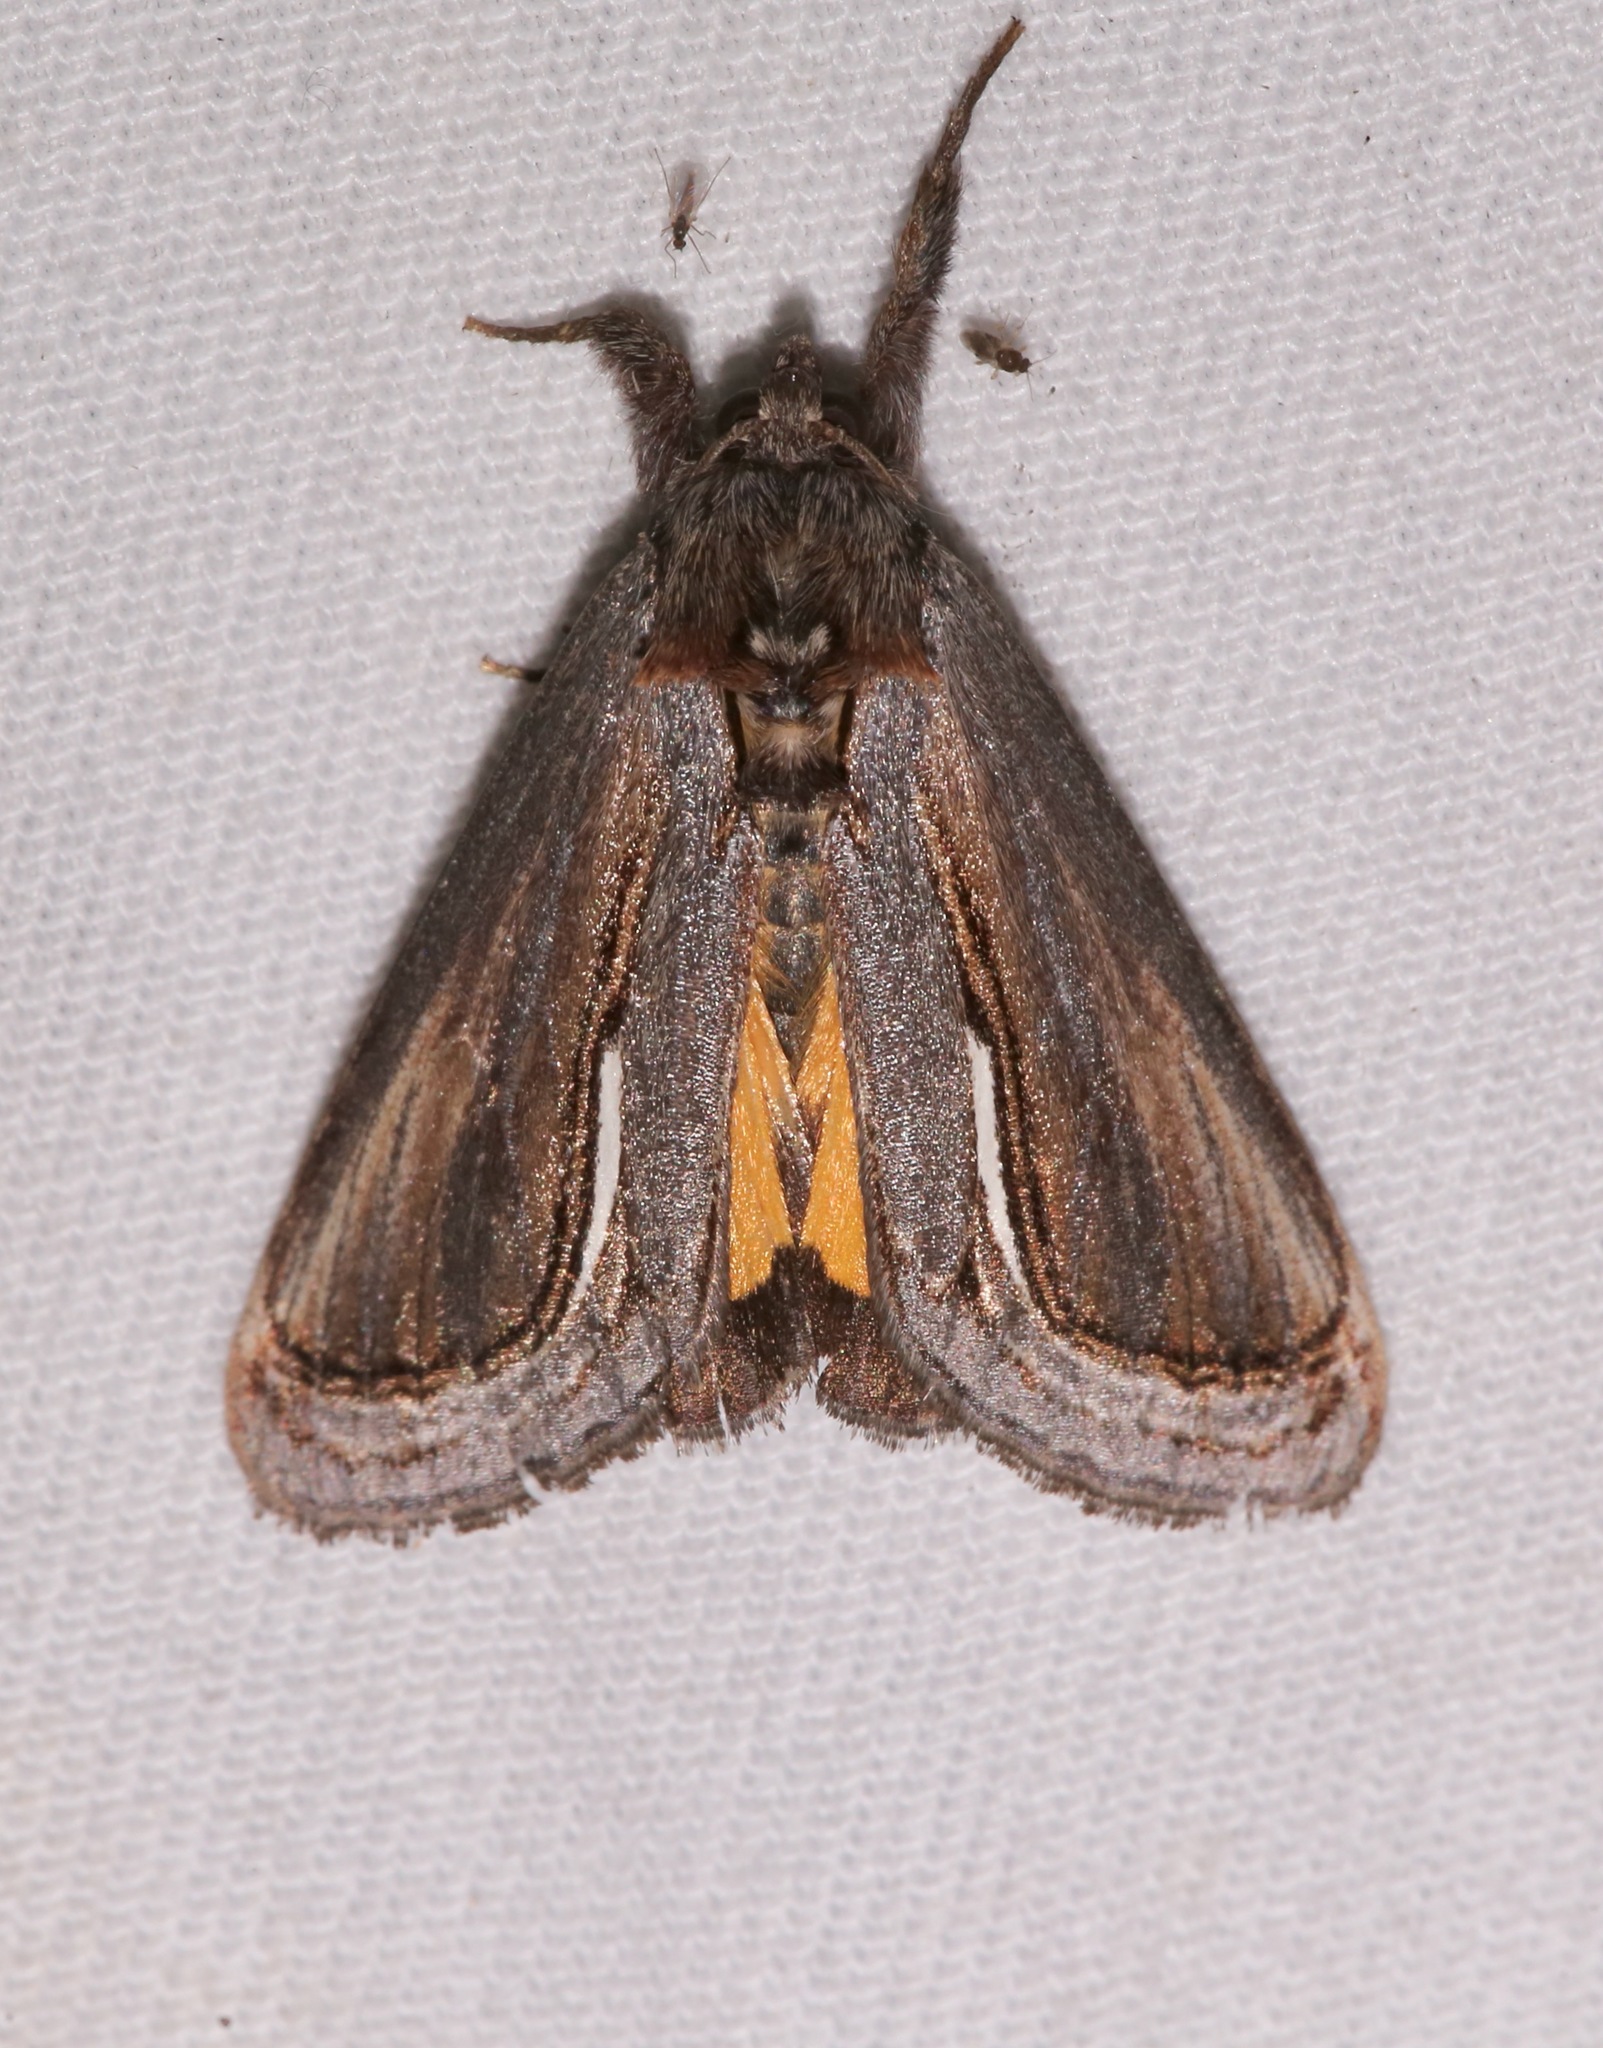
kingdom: Animalia
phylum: Arthropoda
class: Insecta
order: Lepidoptera
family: Noctuidae
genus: Gerrodes
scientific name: Gerrodes minatea
